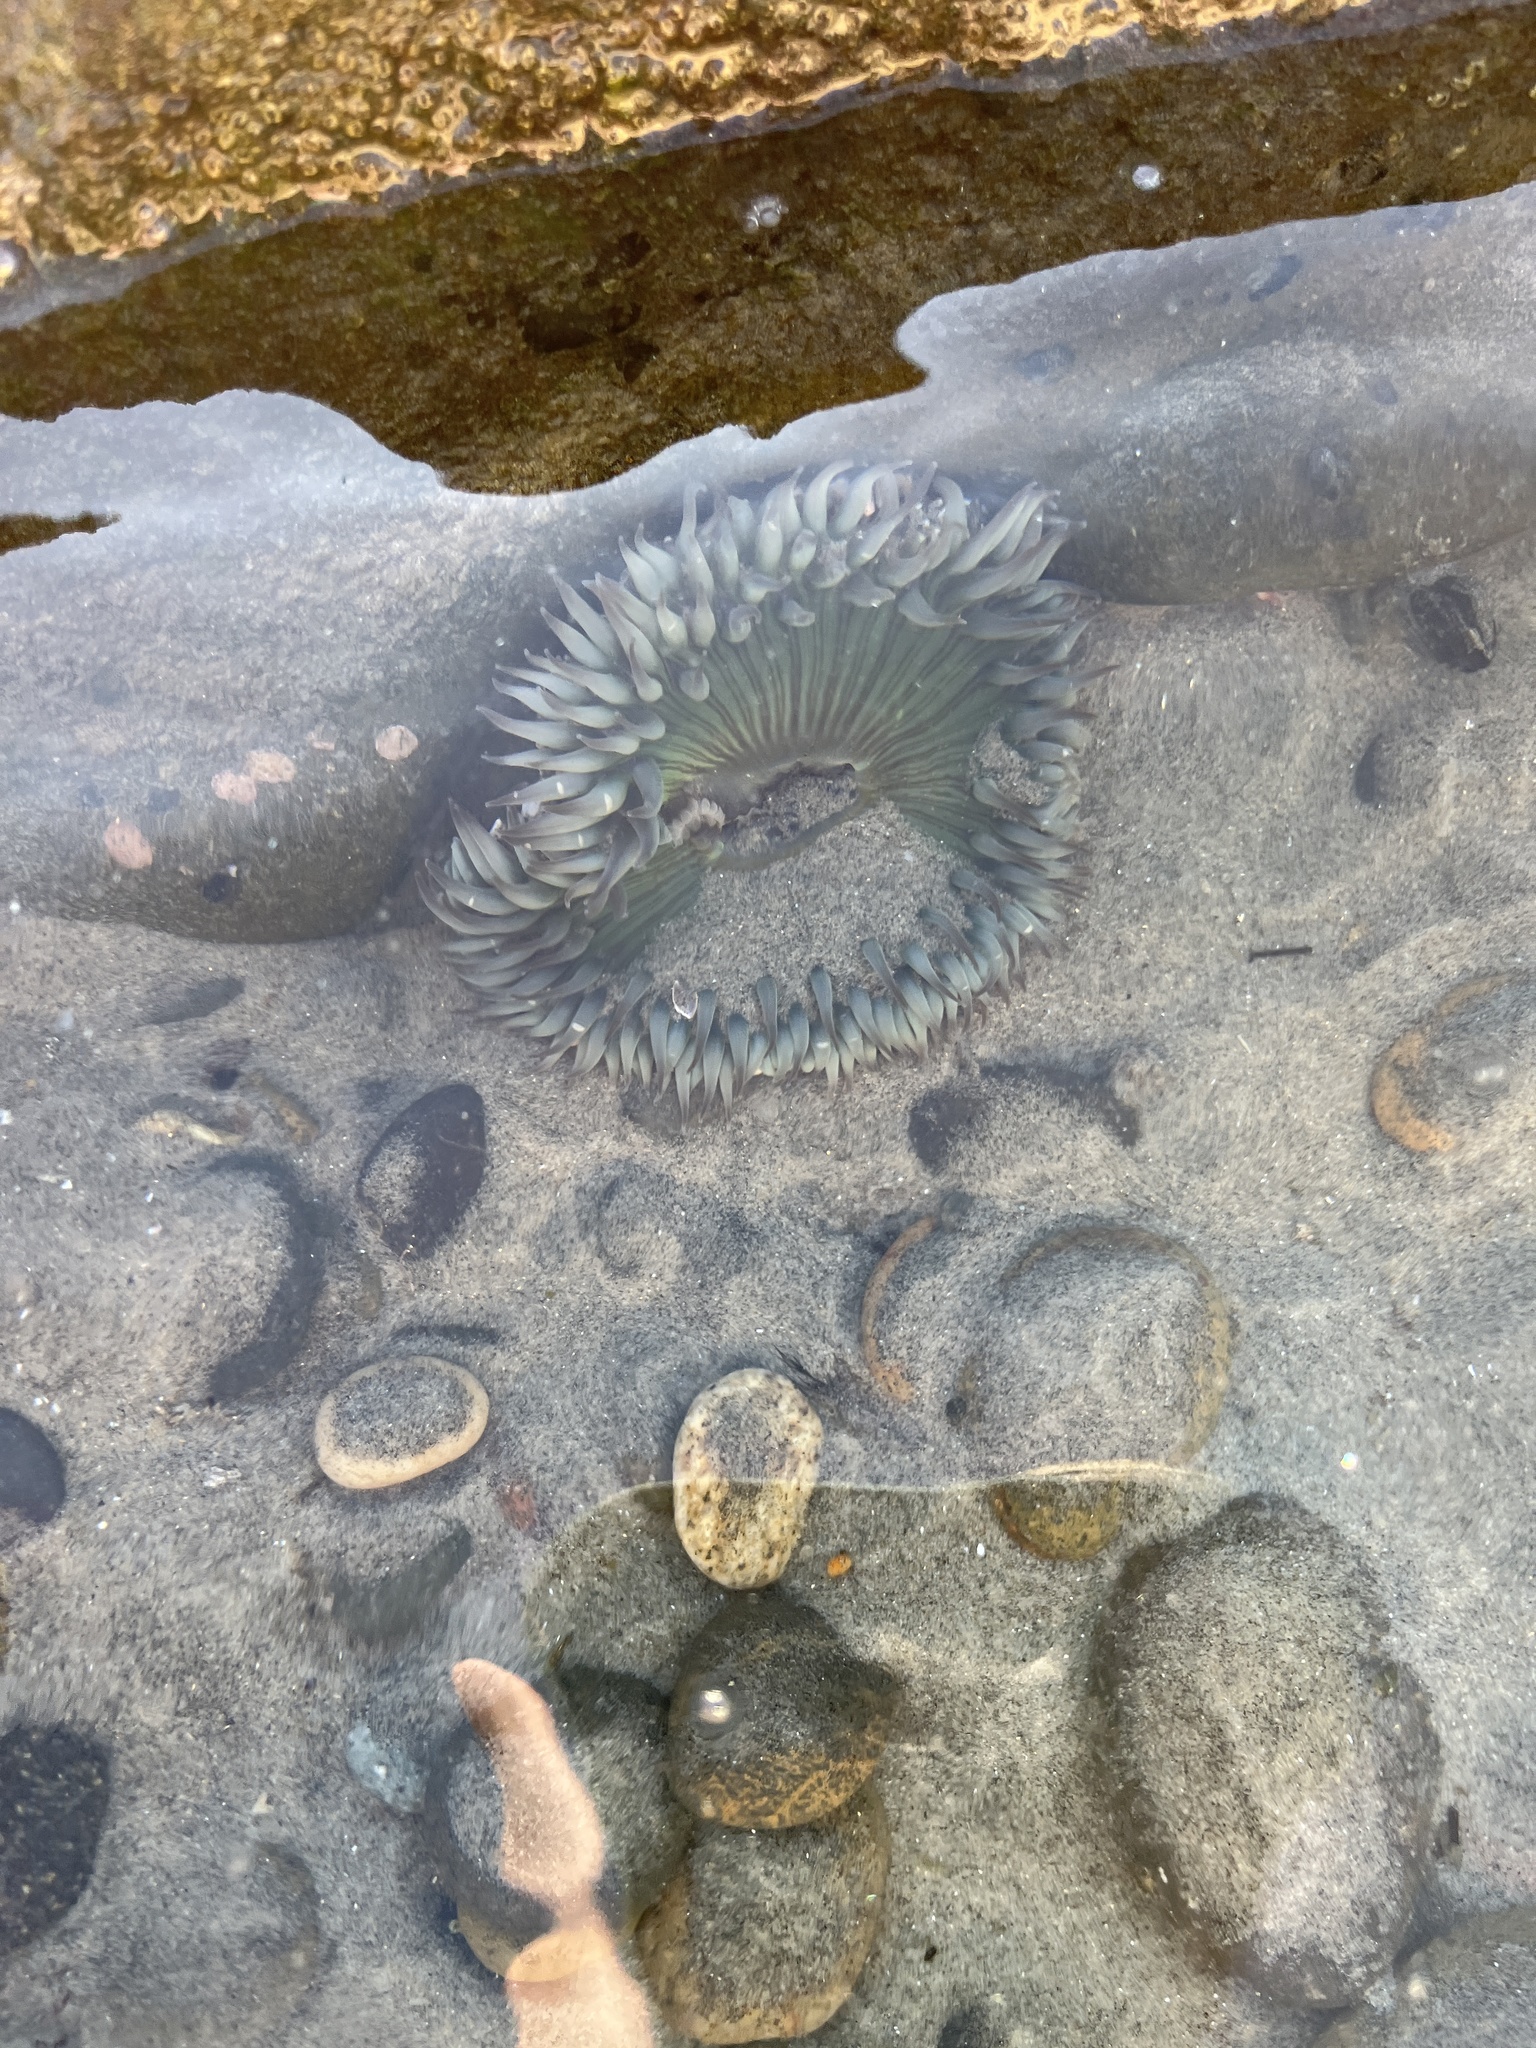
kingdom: Animalia
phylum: Cnidaria
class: Anthozoa
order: Actiniaria
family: Actiniidae
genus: Anthopleura
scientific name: Anthopleura sola
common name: Sun anemone
